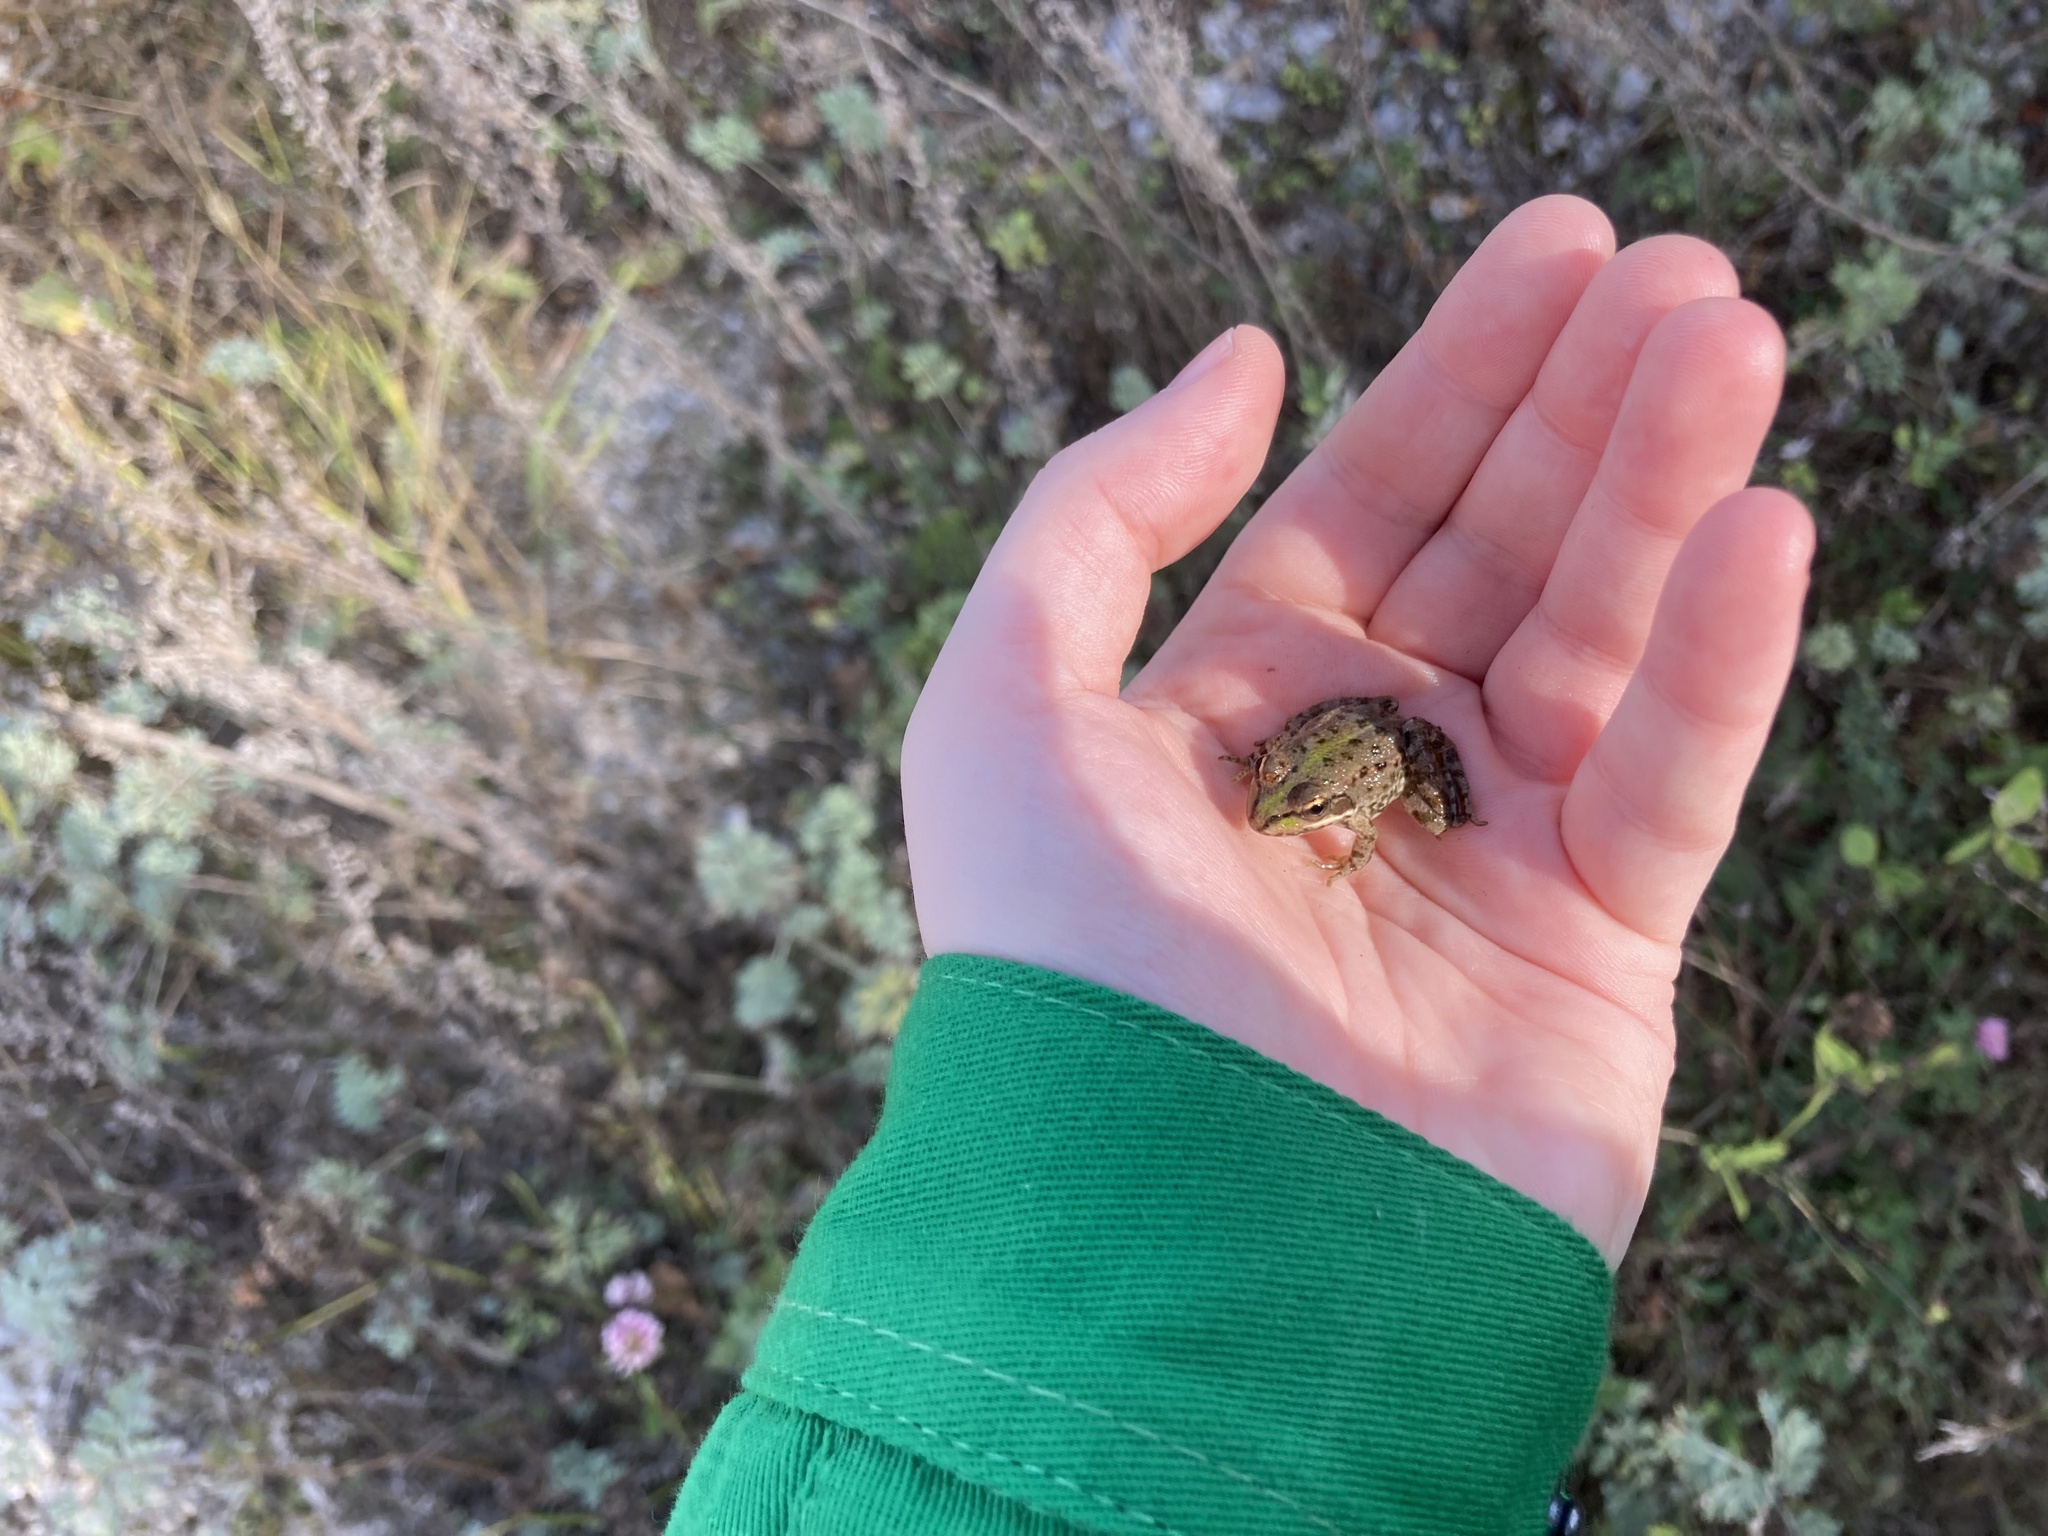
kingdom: Animalia
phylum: Chordata
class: Amphibia
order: Anura
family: Ranidae
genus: Pelophylax
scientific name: Pelophylax ridibundus
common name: Marsh frog
